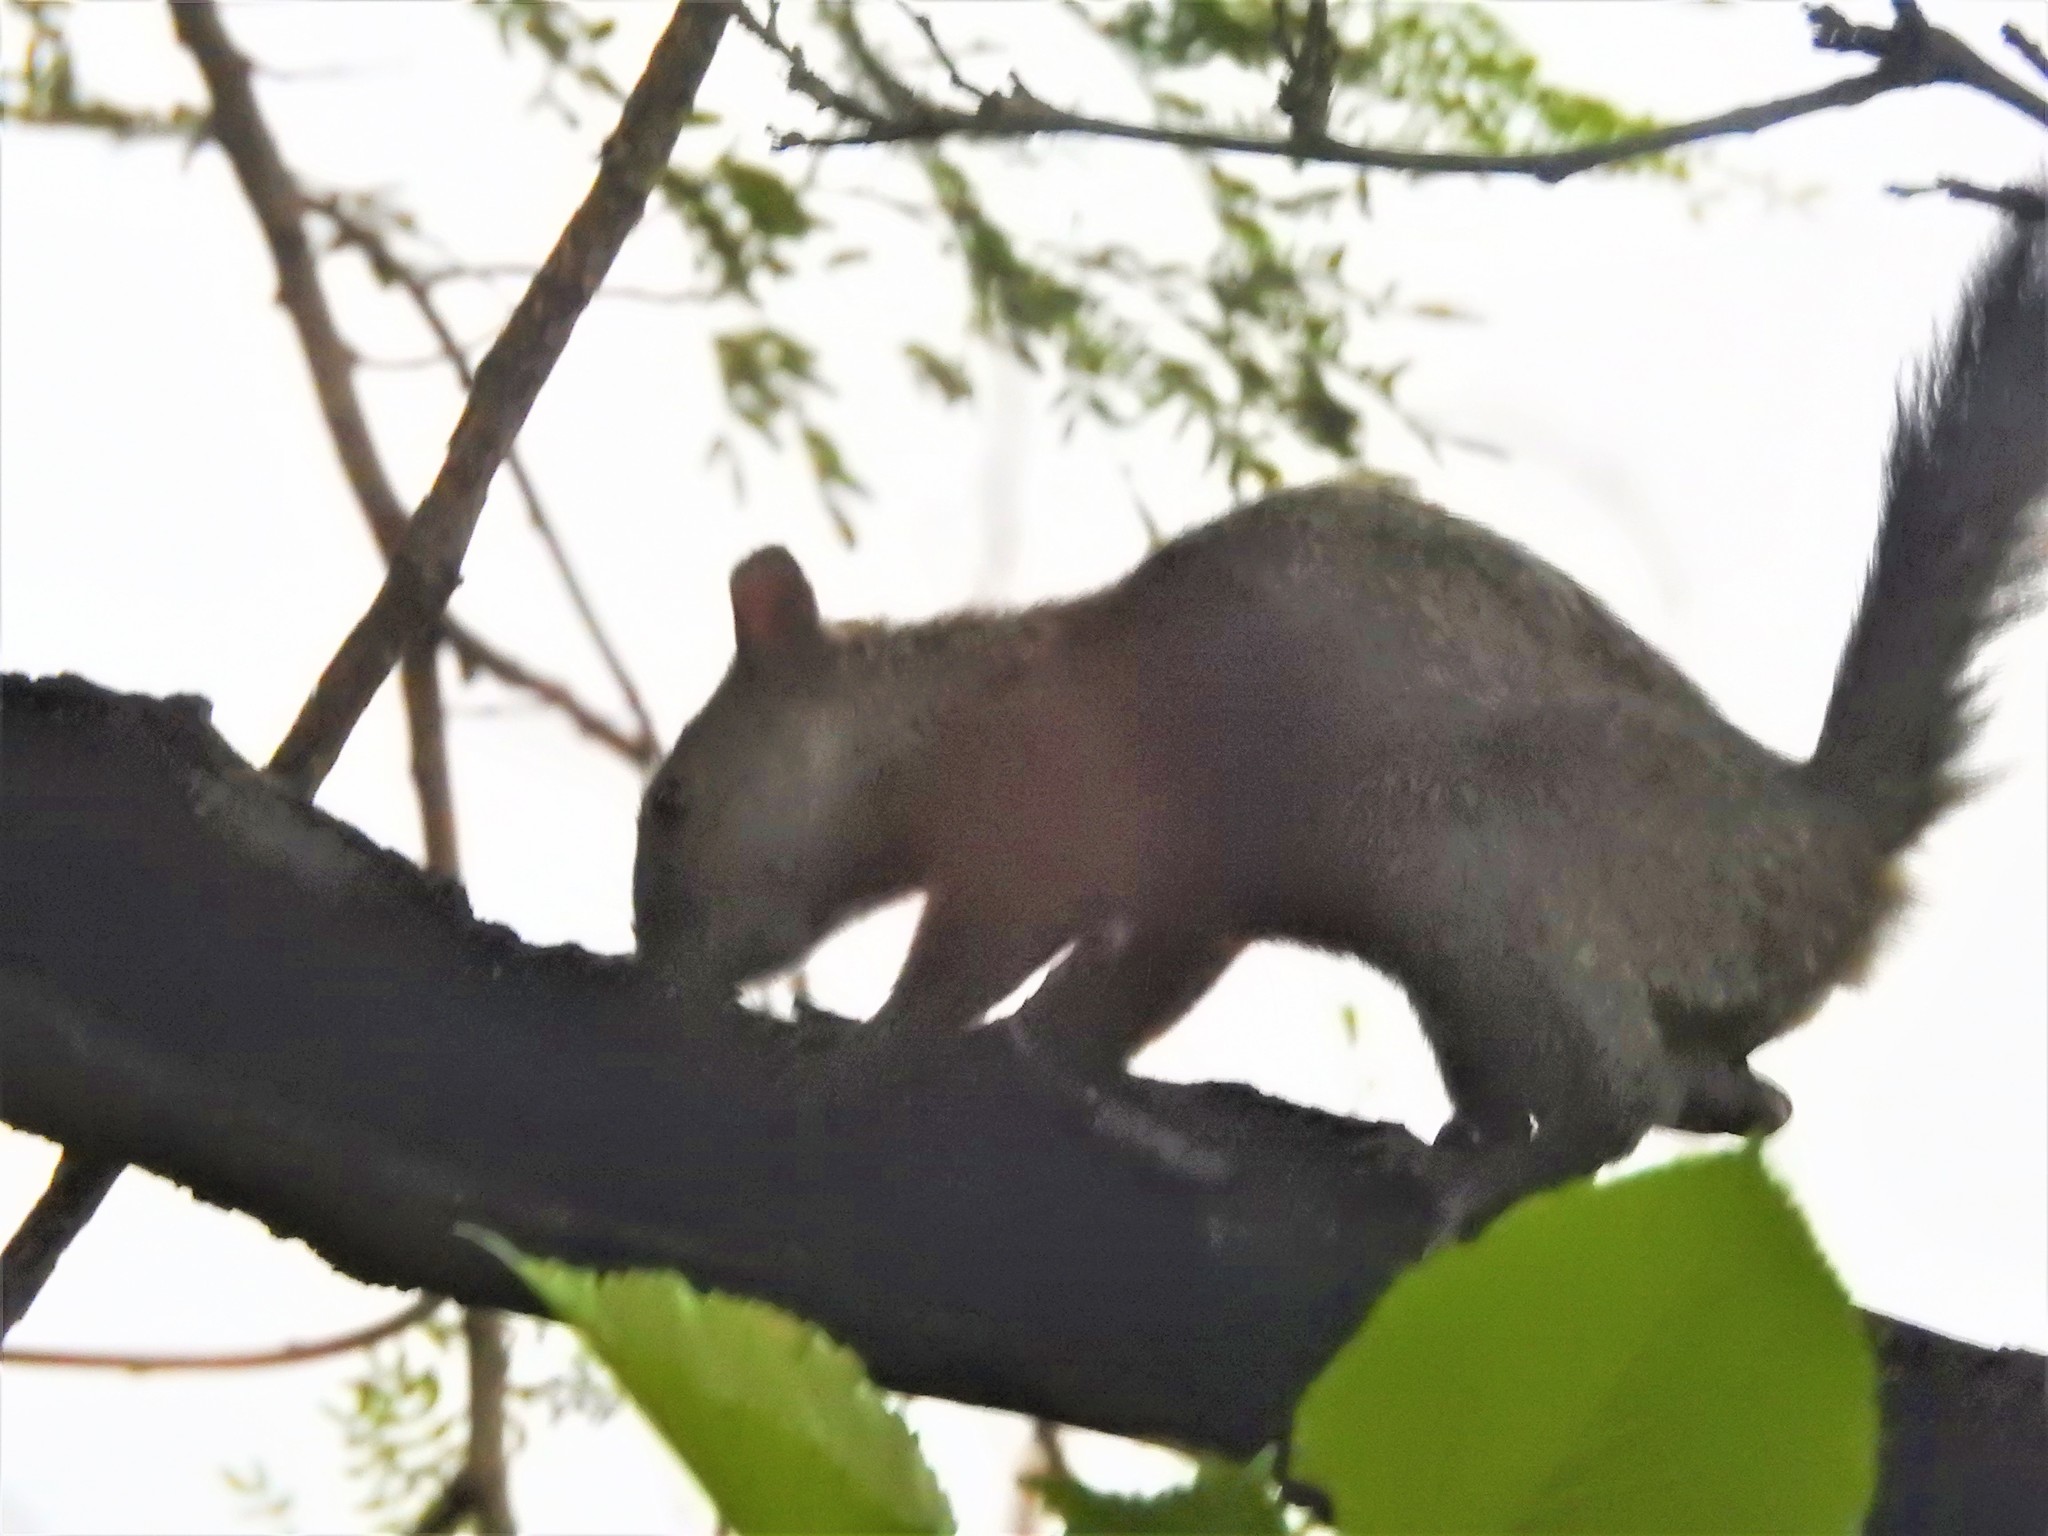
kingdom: Animalia
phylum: Chordata
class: Mammalia
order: Rodentia
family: Sciuridae
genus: Sciurus
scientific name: Sciurus aureogaster
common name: Red-bellied squirrel
